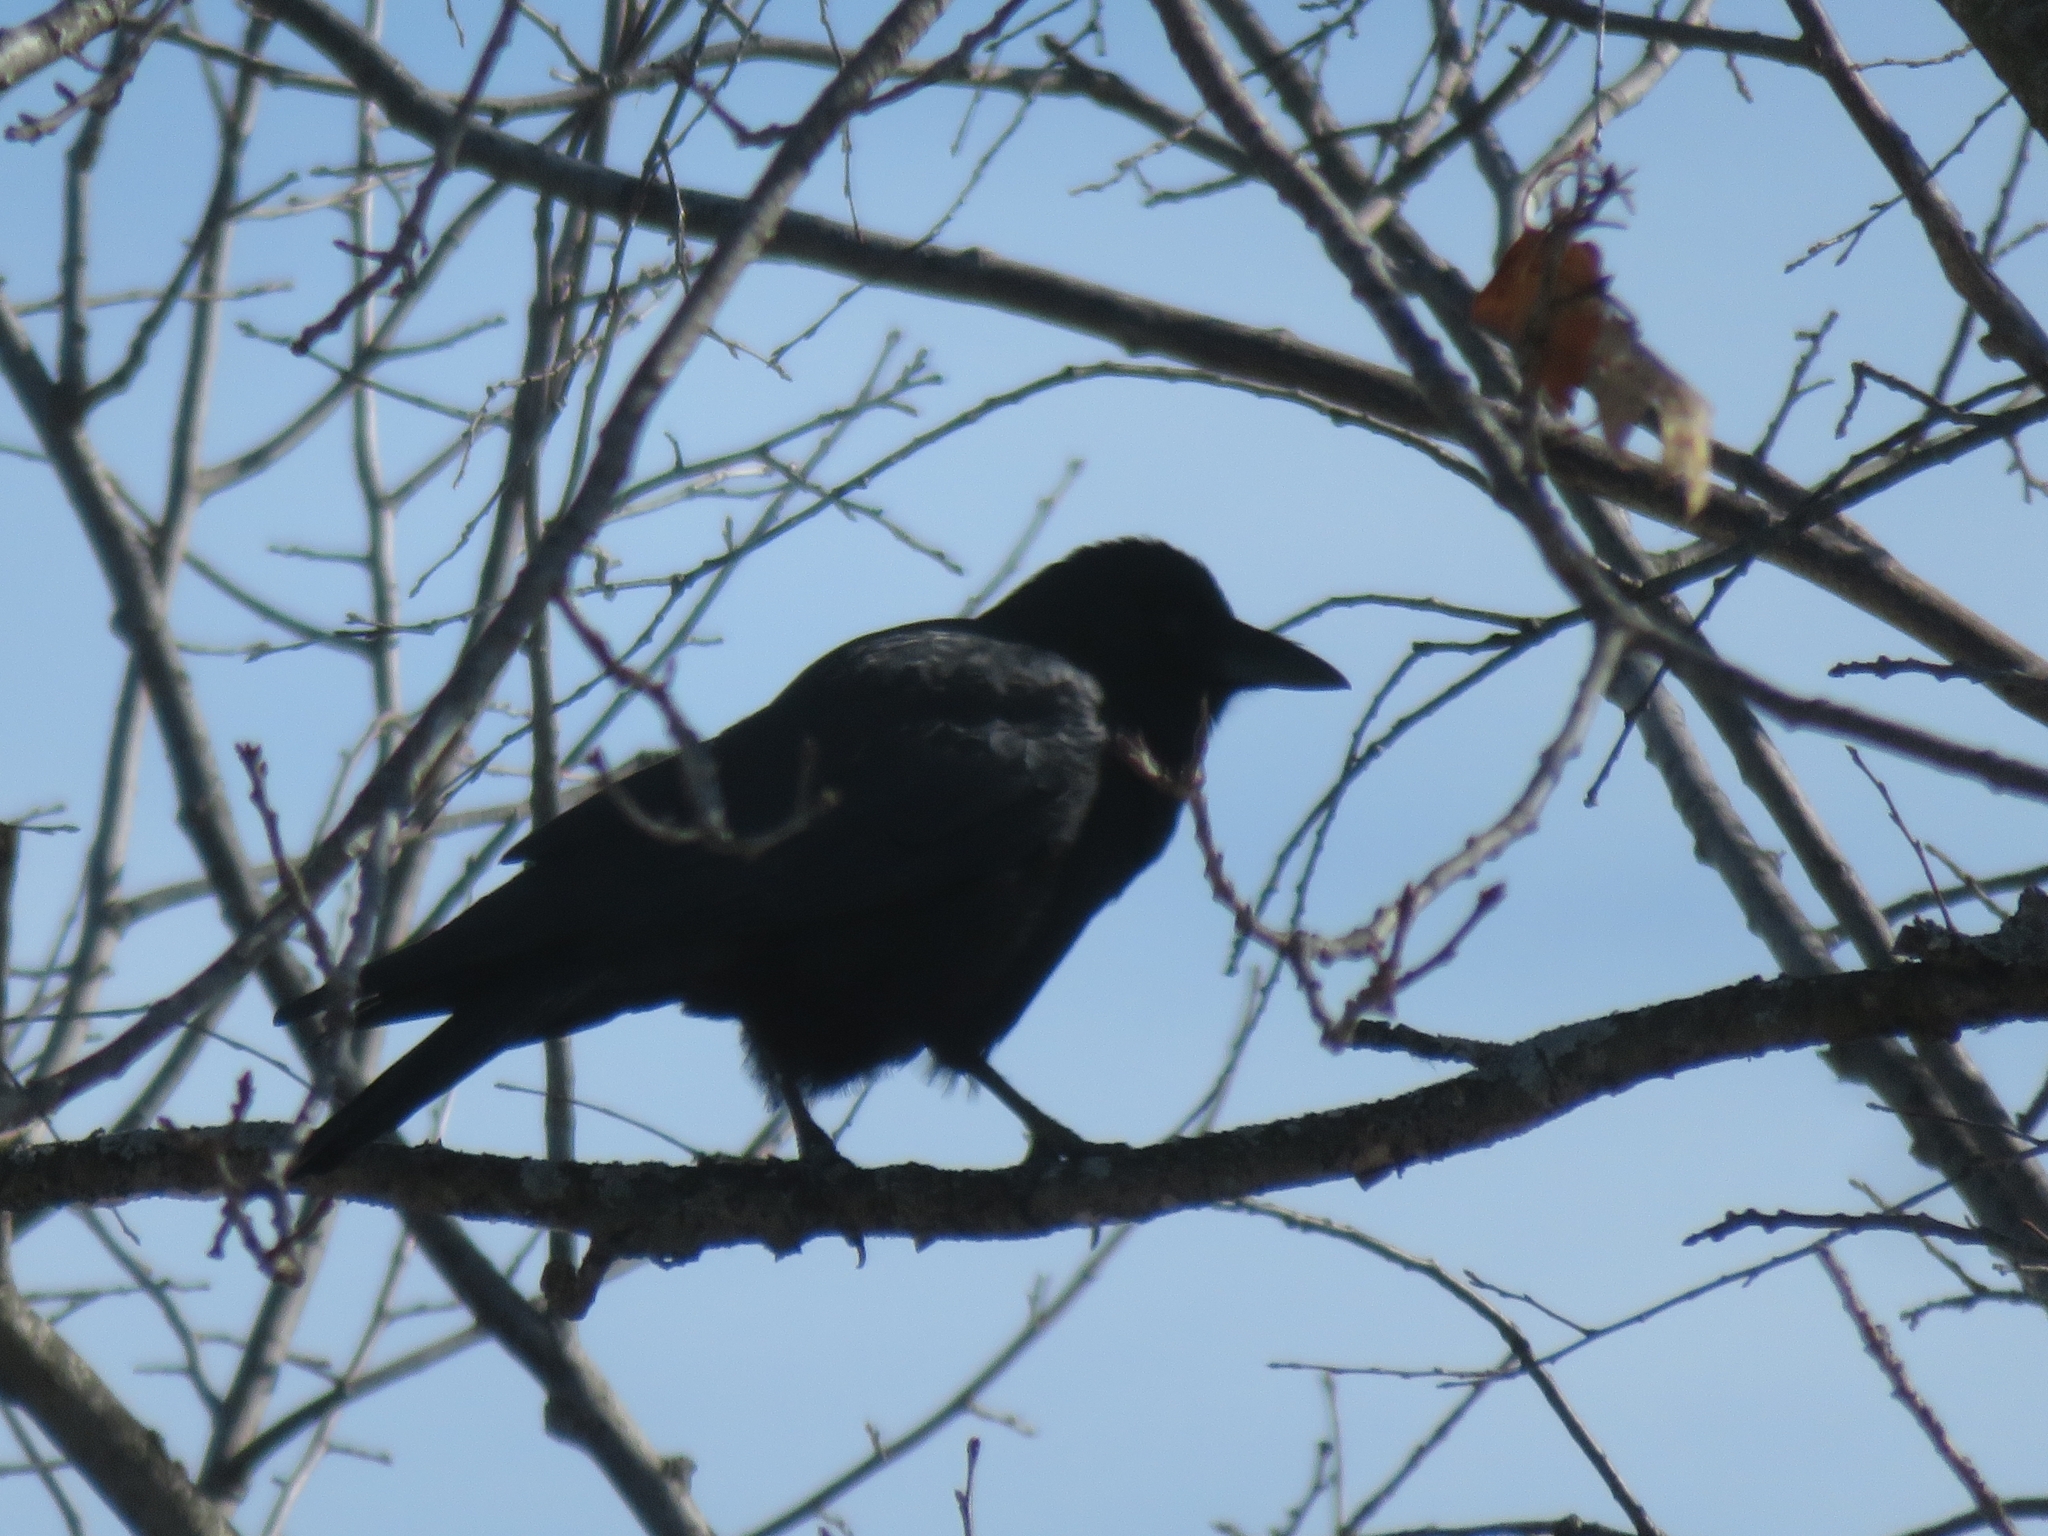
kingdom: Animalia
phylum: Chordata
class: Aves
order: Passeriformes
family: Corvidae
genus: Corvus
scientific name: Corvus brachyrhynchos
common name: American crow
